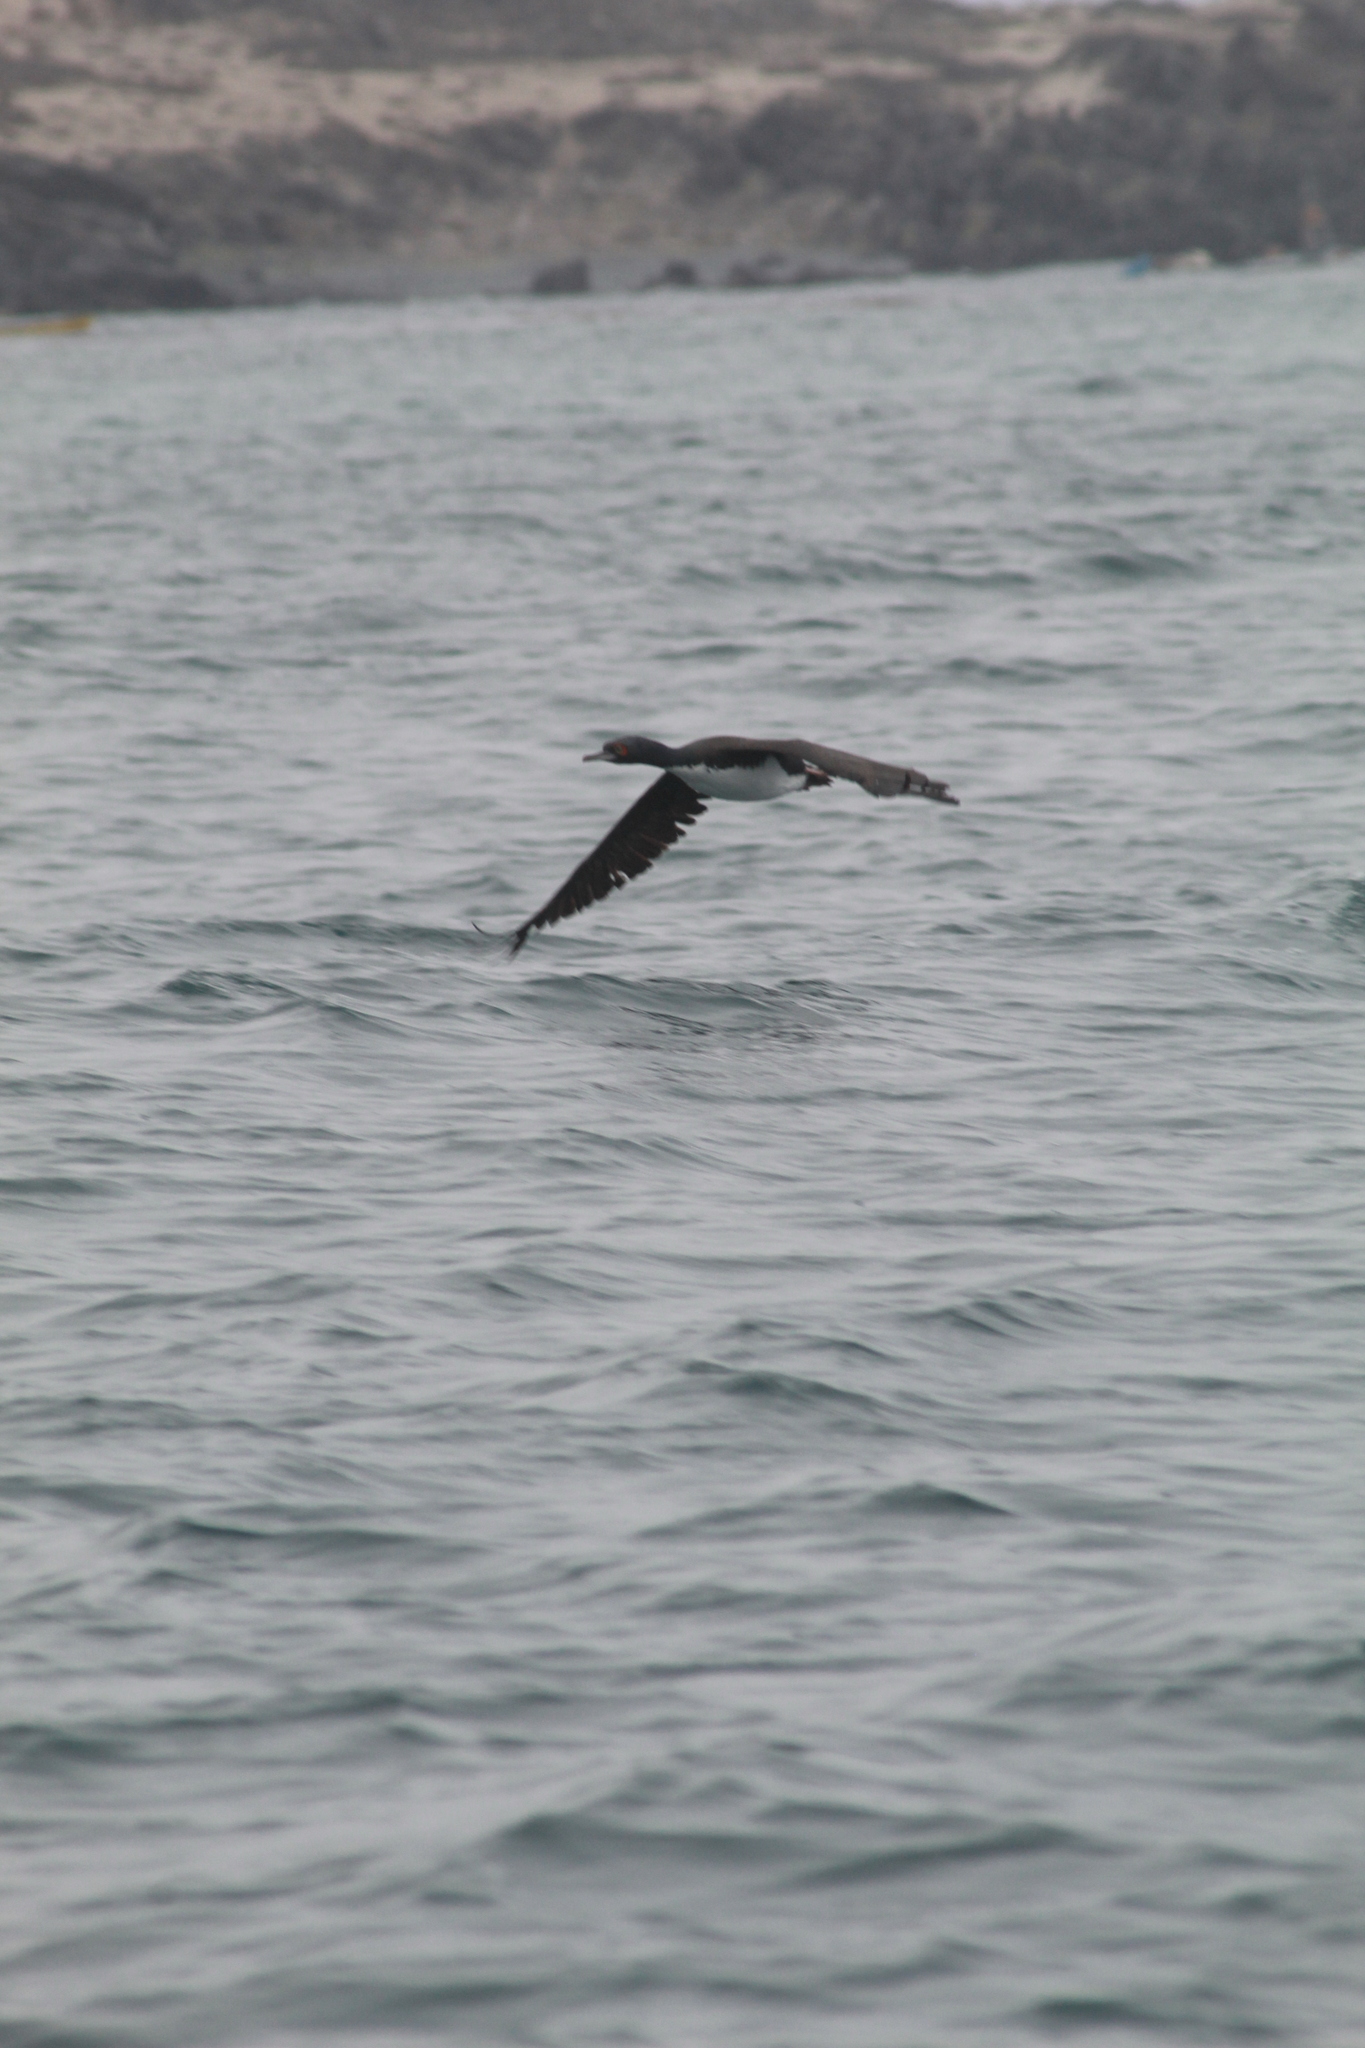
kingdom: Animalia
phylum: Chordata
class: Aves
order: Suliformes
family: Phalacrocoracidae
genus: Leucocarbo
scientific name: Leucocarbo bougainvillii
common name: Guanay cormorant
